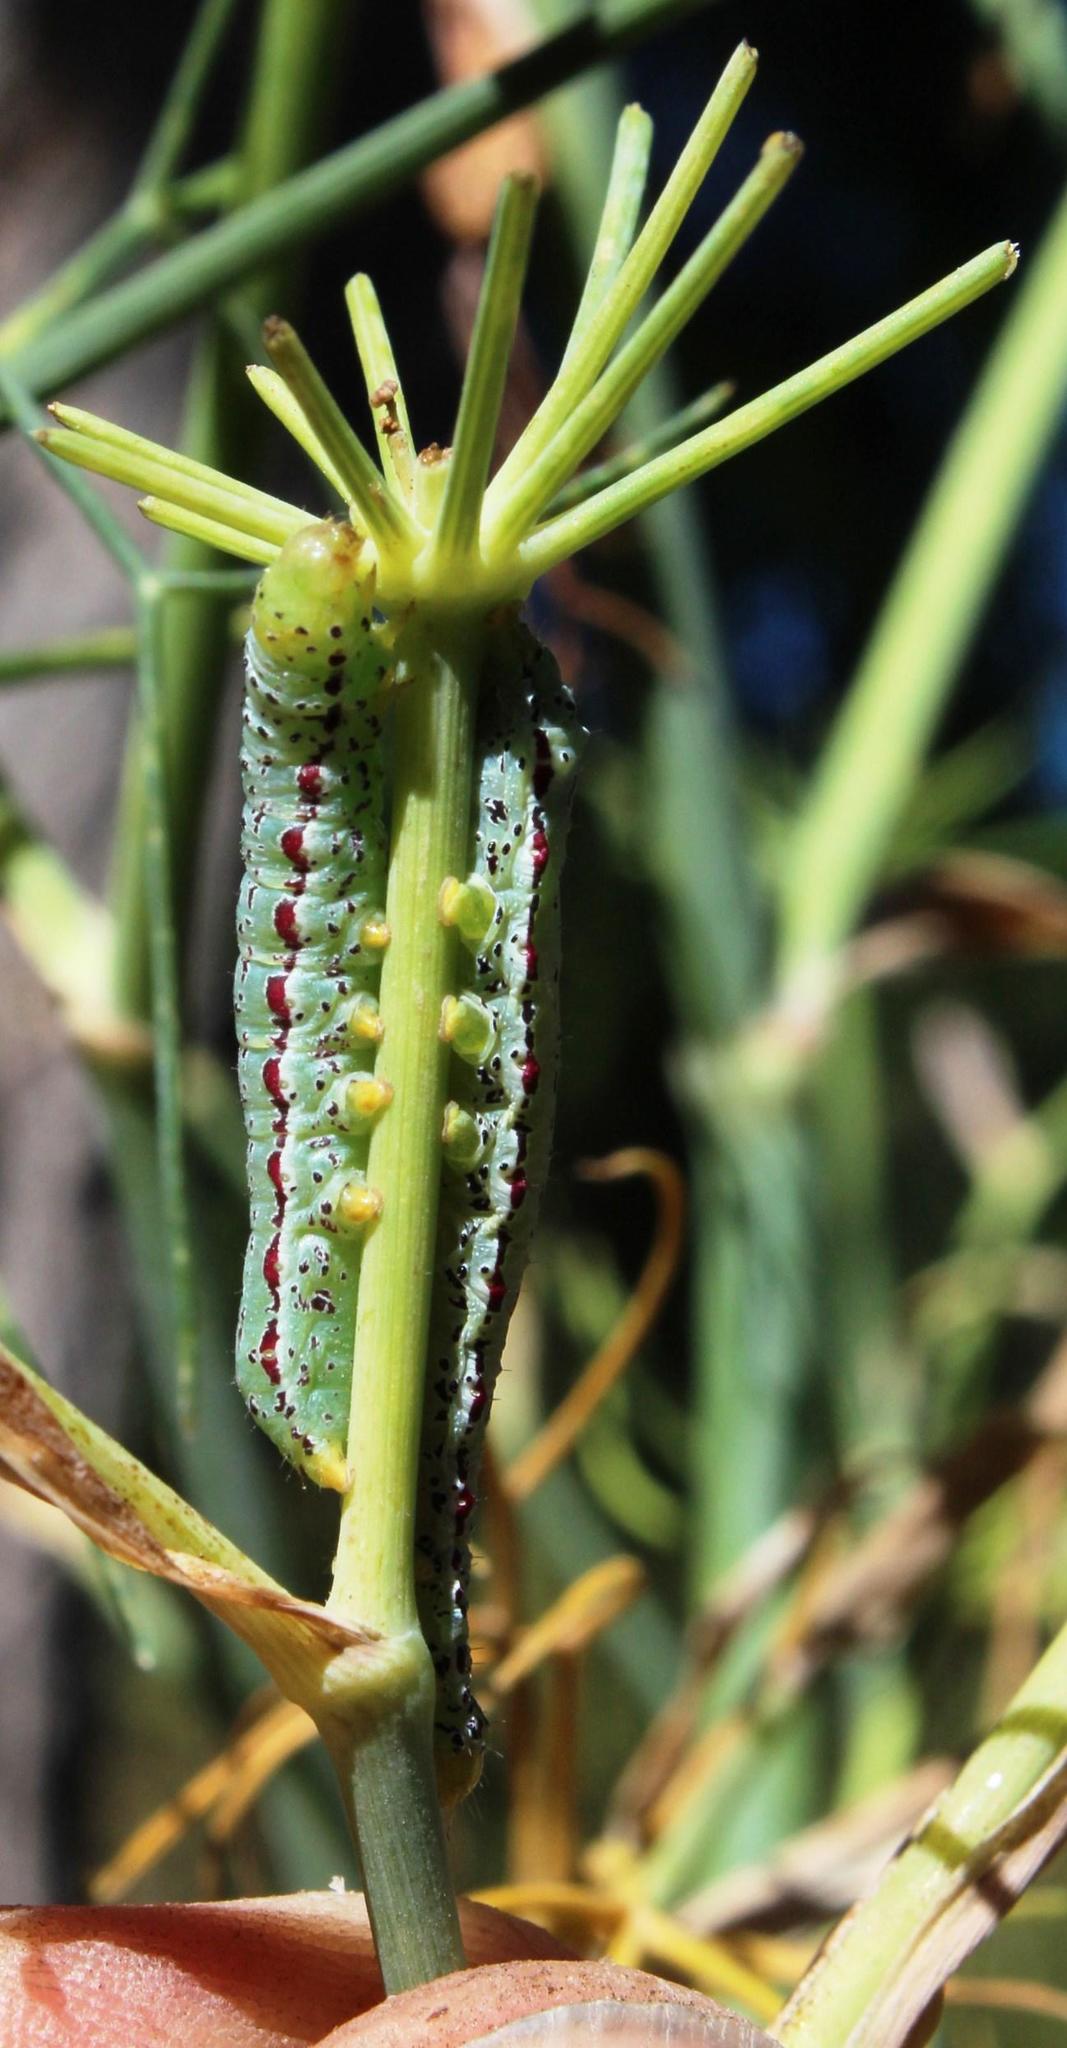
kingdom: Animalia
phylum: Arthropoda
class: Insecta
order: Lepidoptera
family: Noctuidae
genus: Compsotata
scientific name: Compsotata elegantissima
